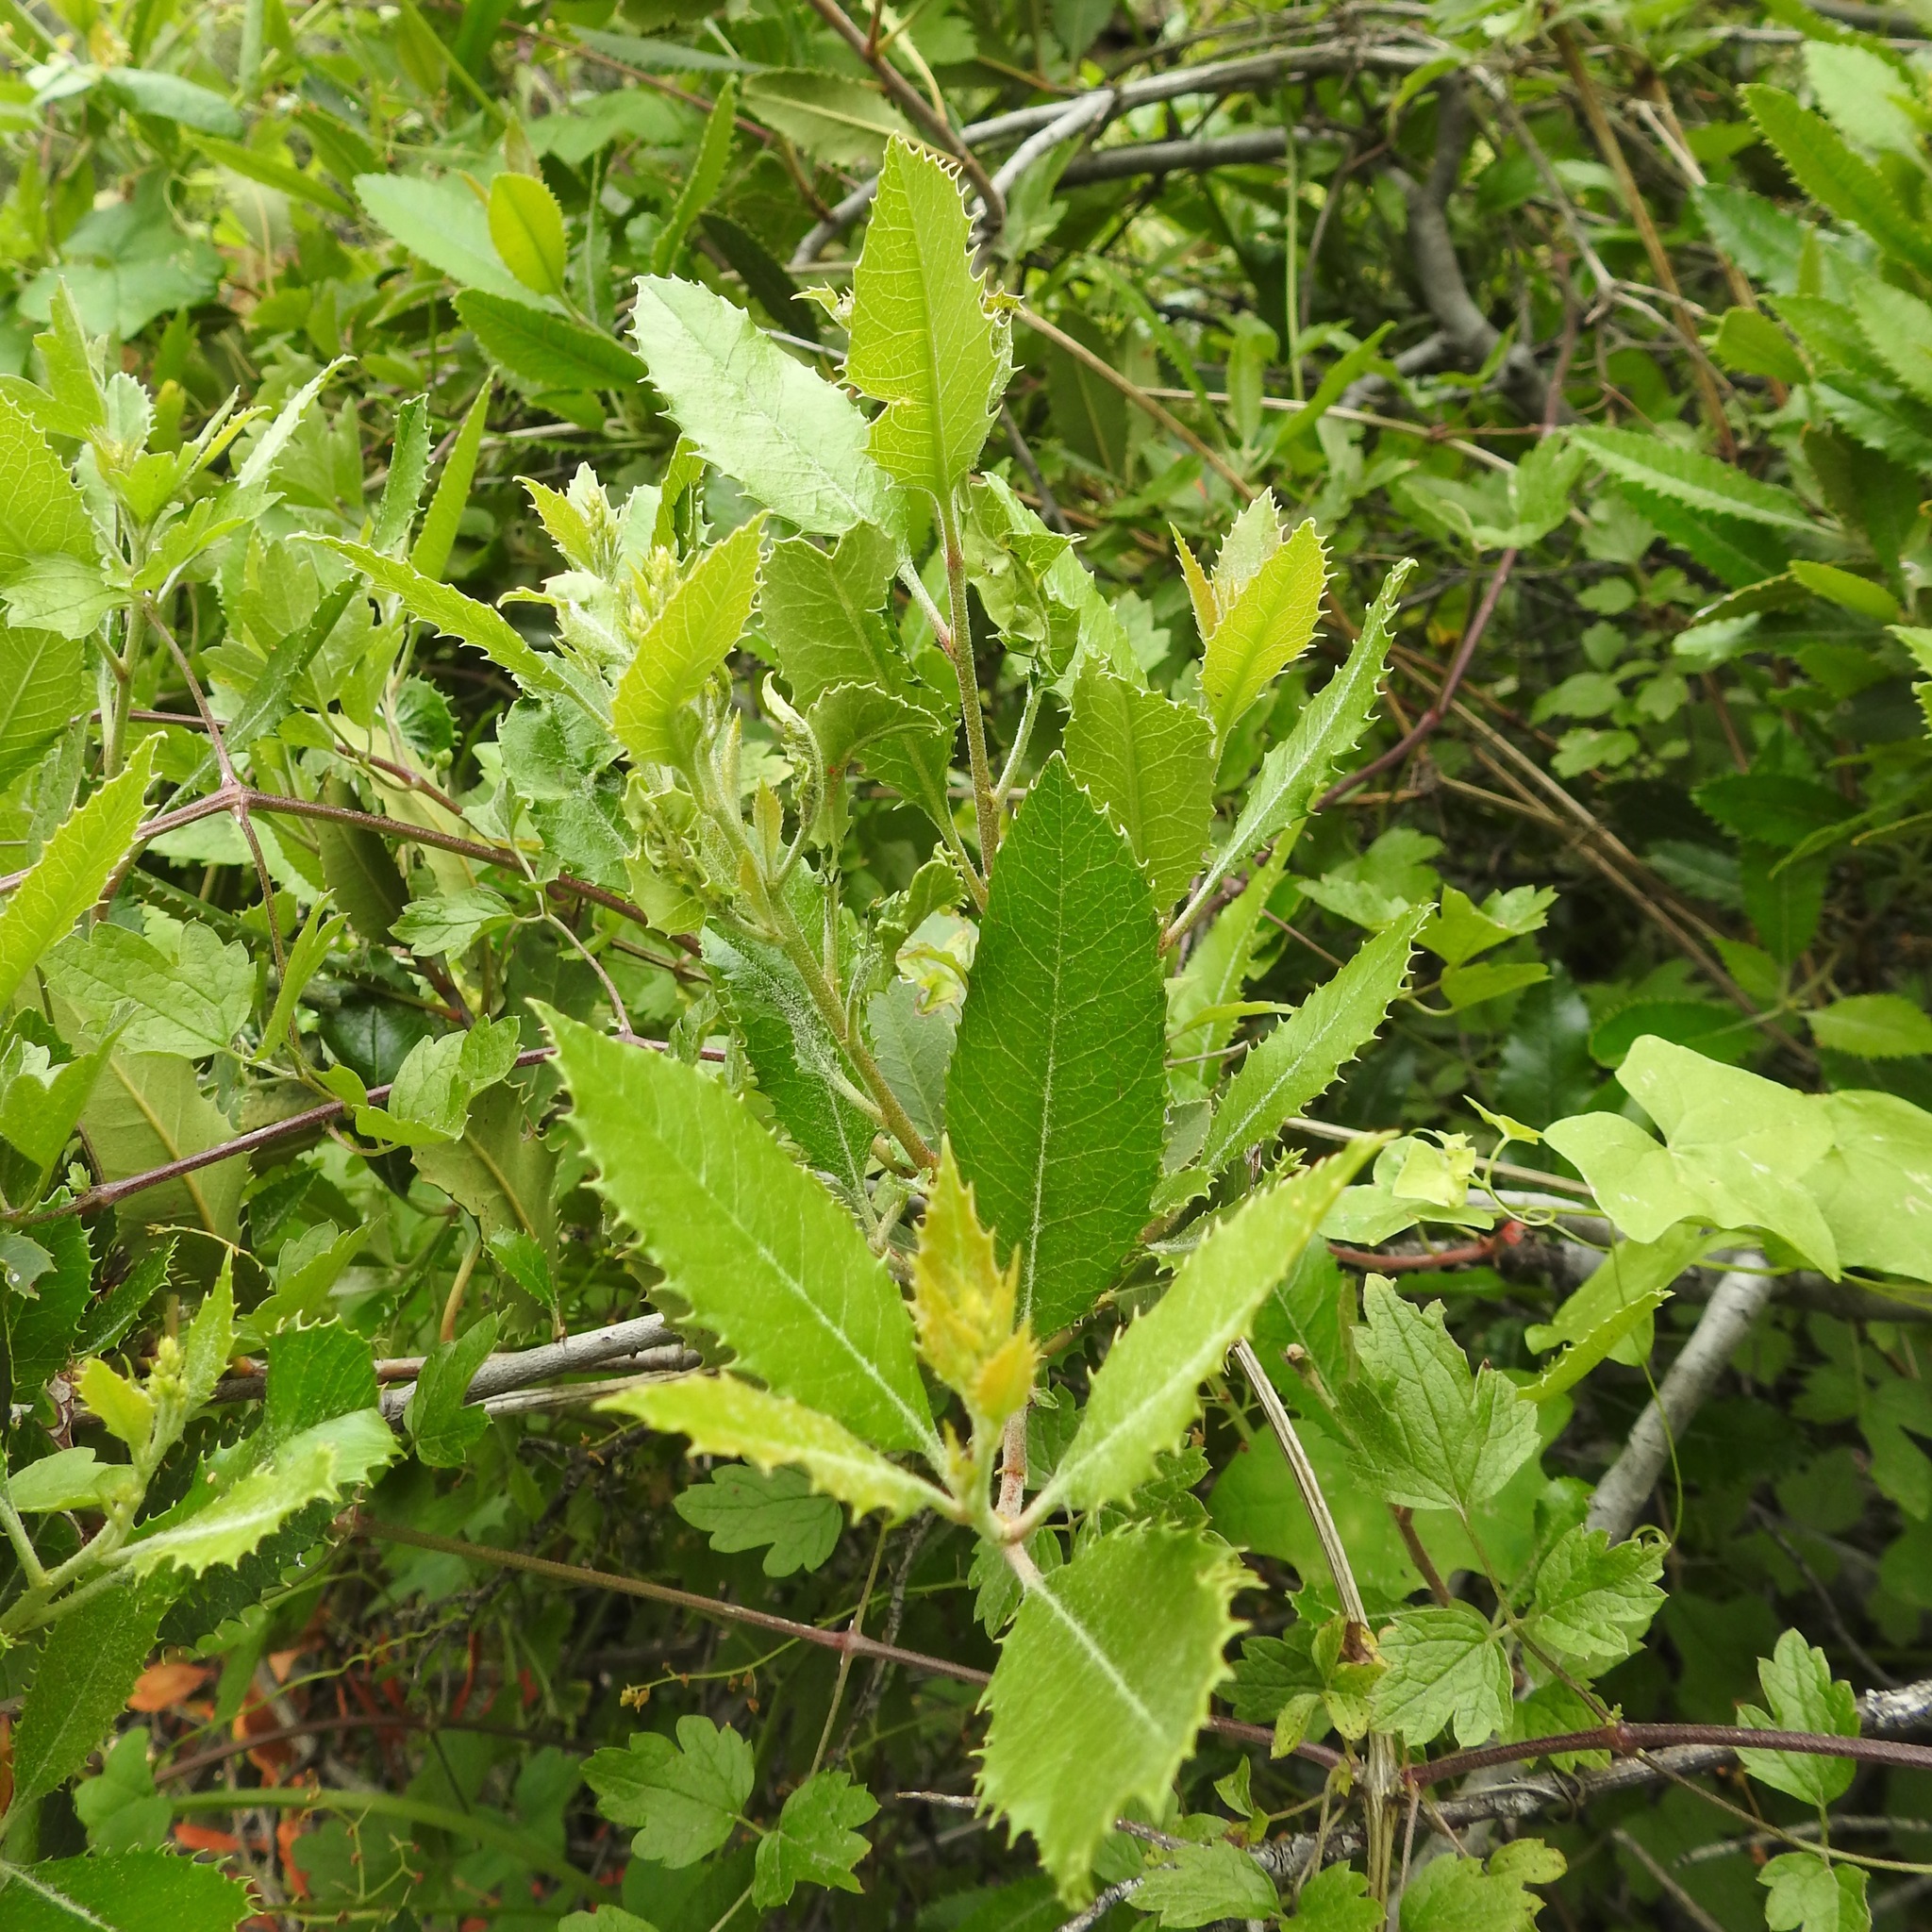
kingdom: Plantae
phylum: Tracheophyta
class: Magnoliopsida
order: Rosales
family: Rosaceae
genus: Heteromeles
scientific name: Heteromeles arbutifolia
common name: California-holly
